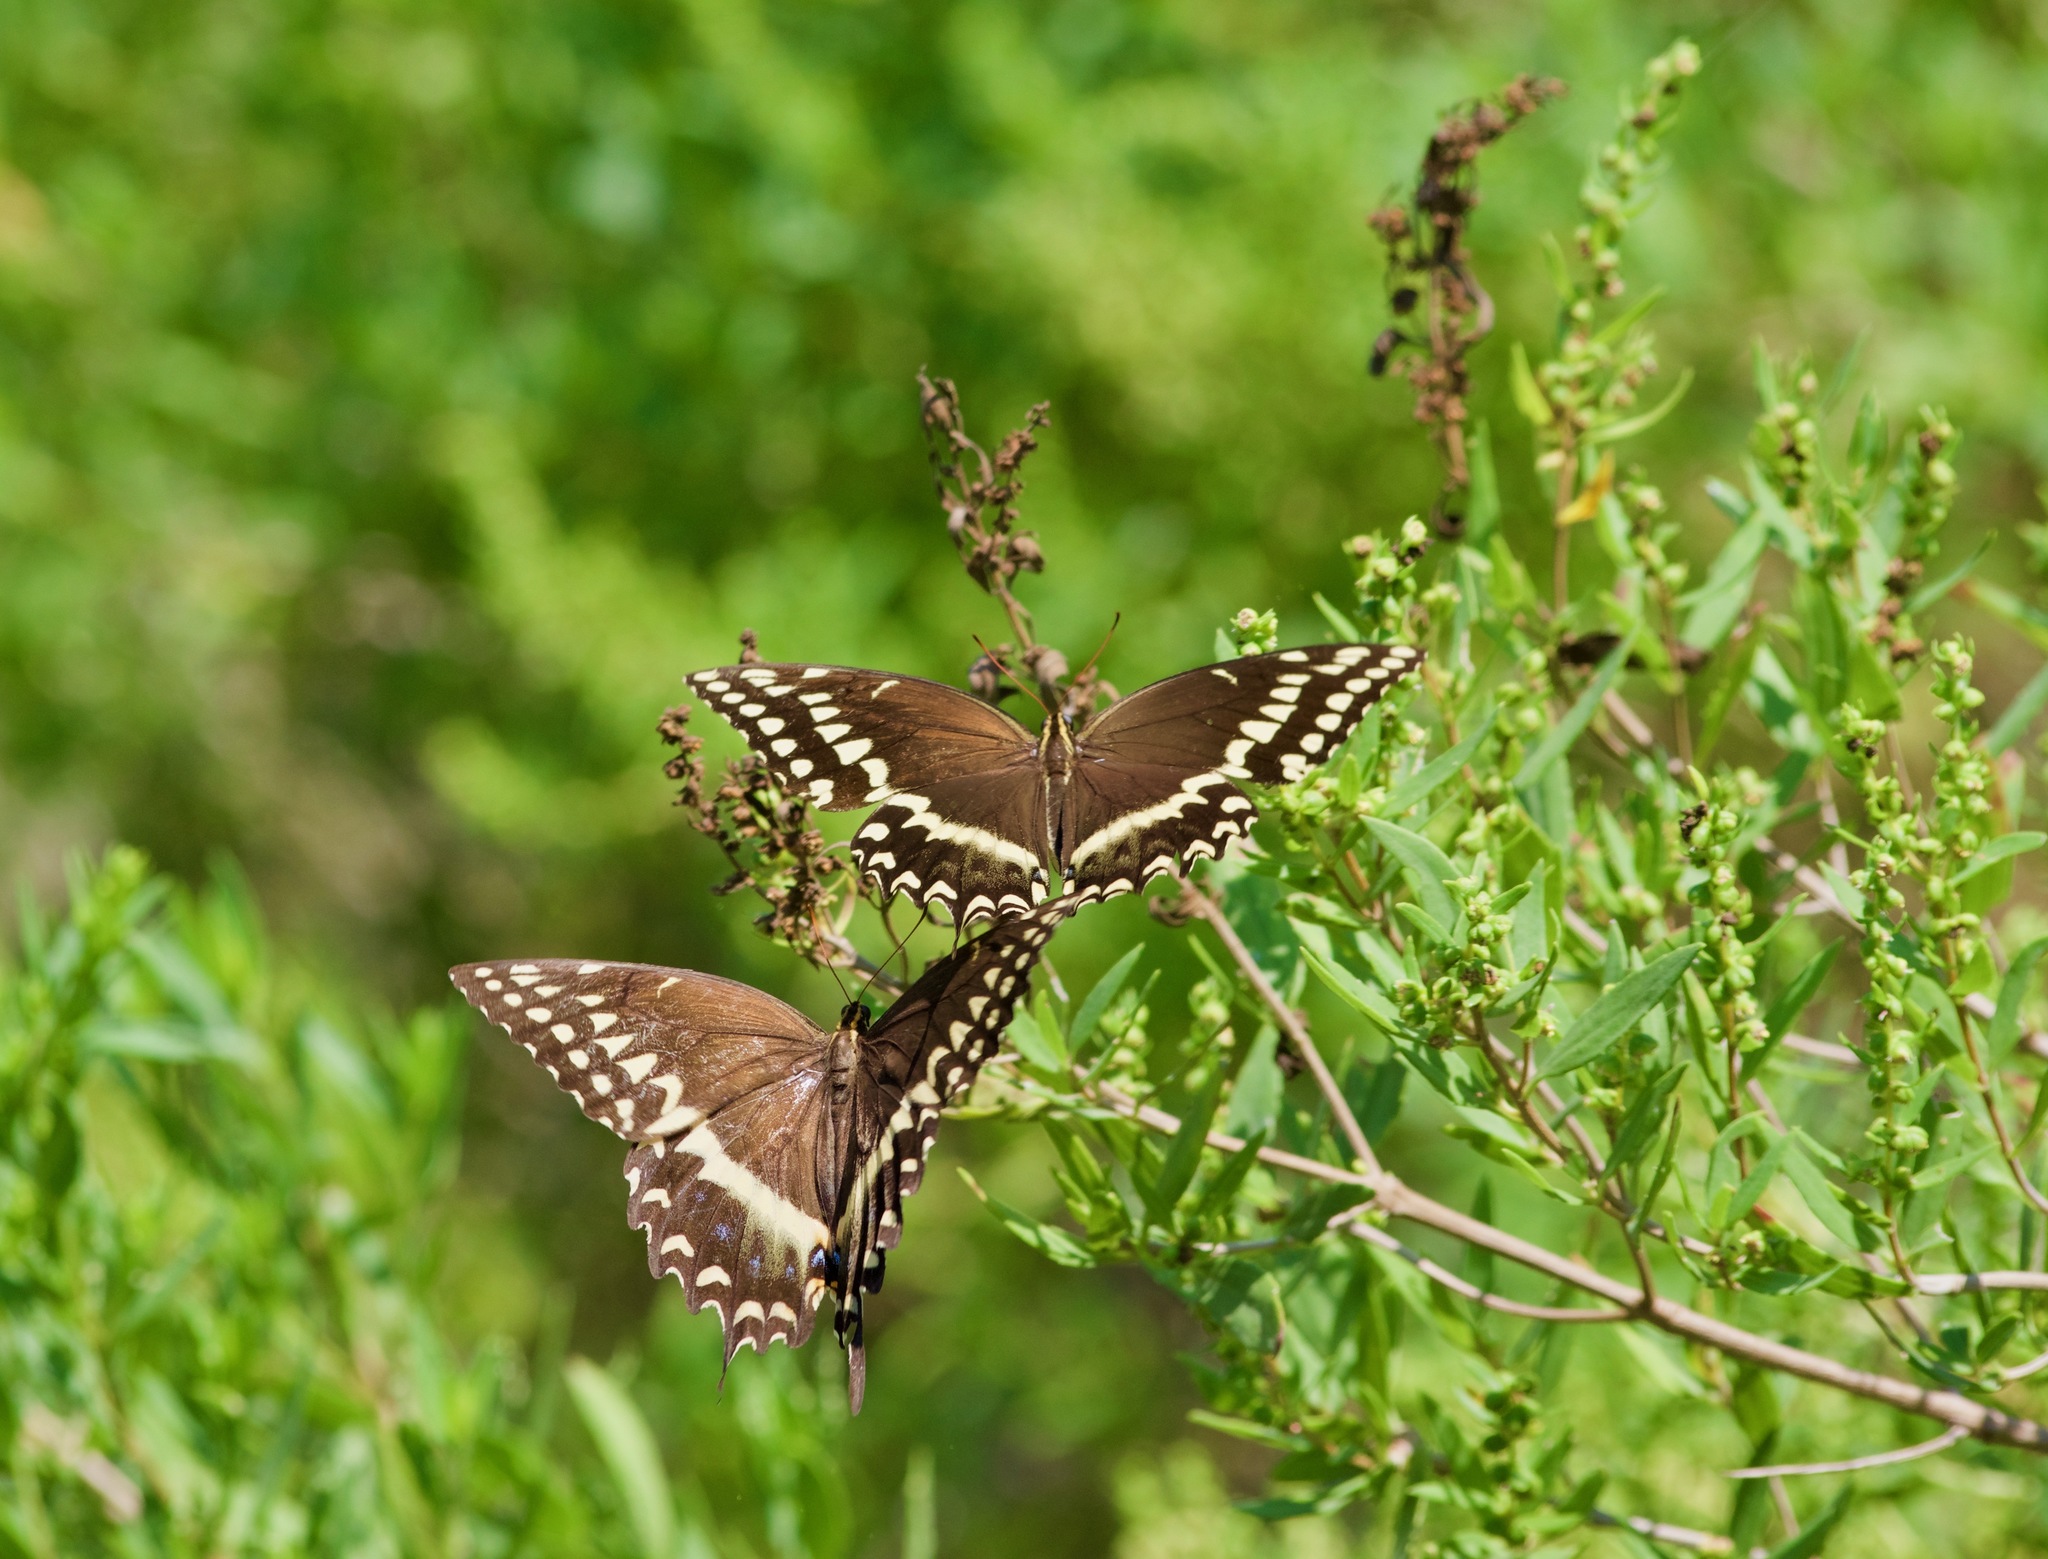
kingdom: Animalia
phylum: Arthropoda
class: Insecta
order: Lepidoptera
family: Papilionidae
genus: Papilio
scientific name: Papilio palamedes
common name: Palamedes swallowtail
